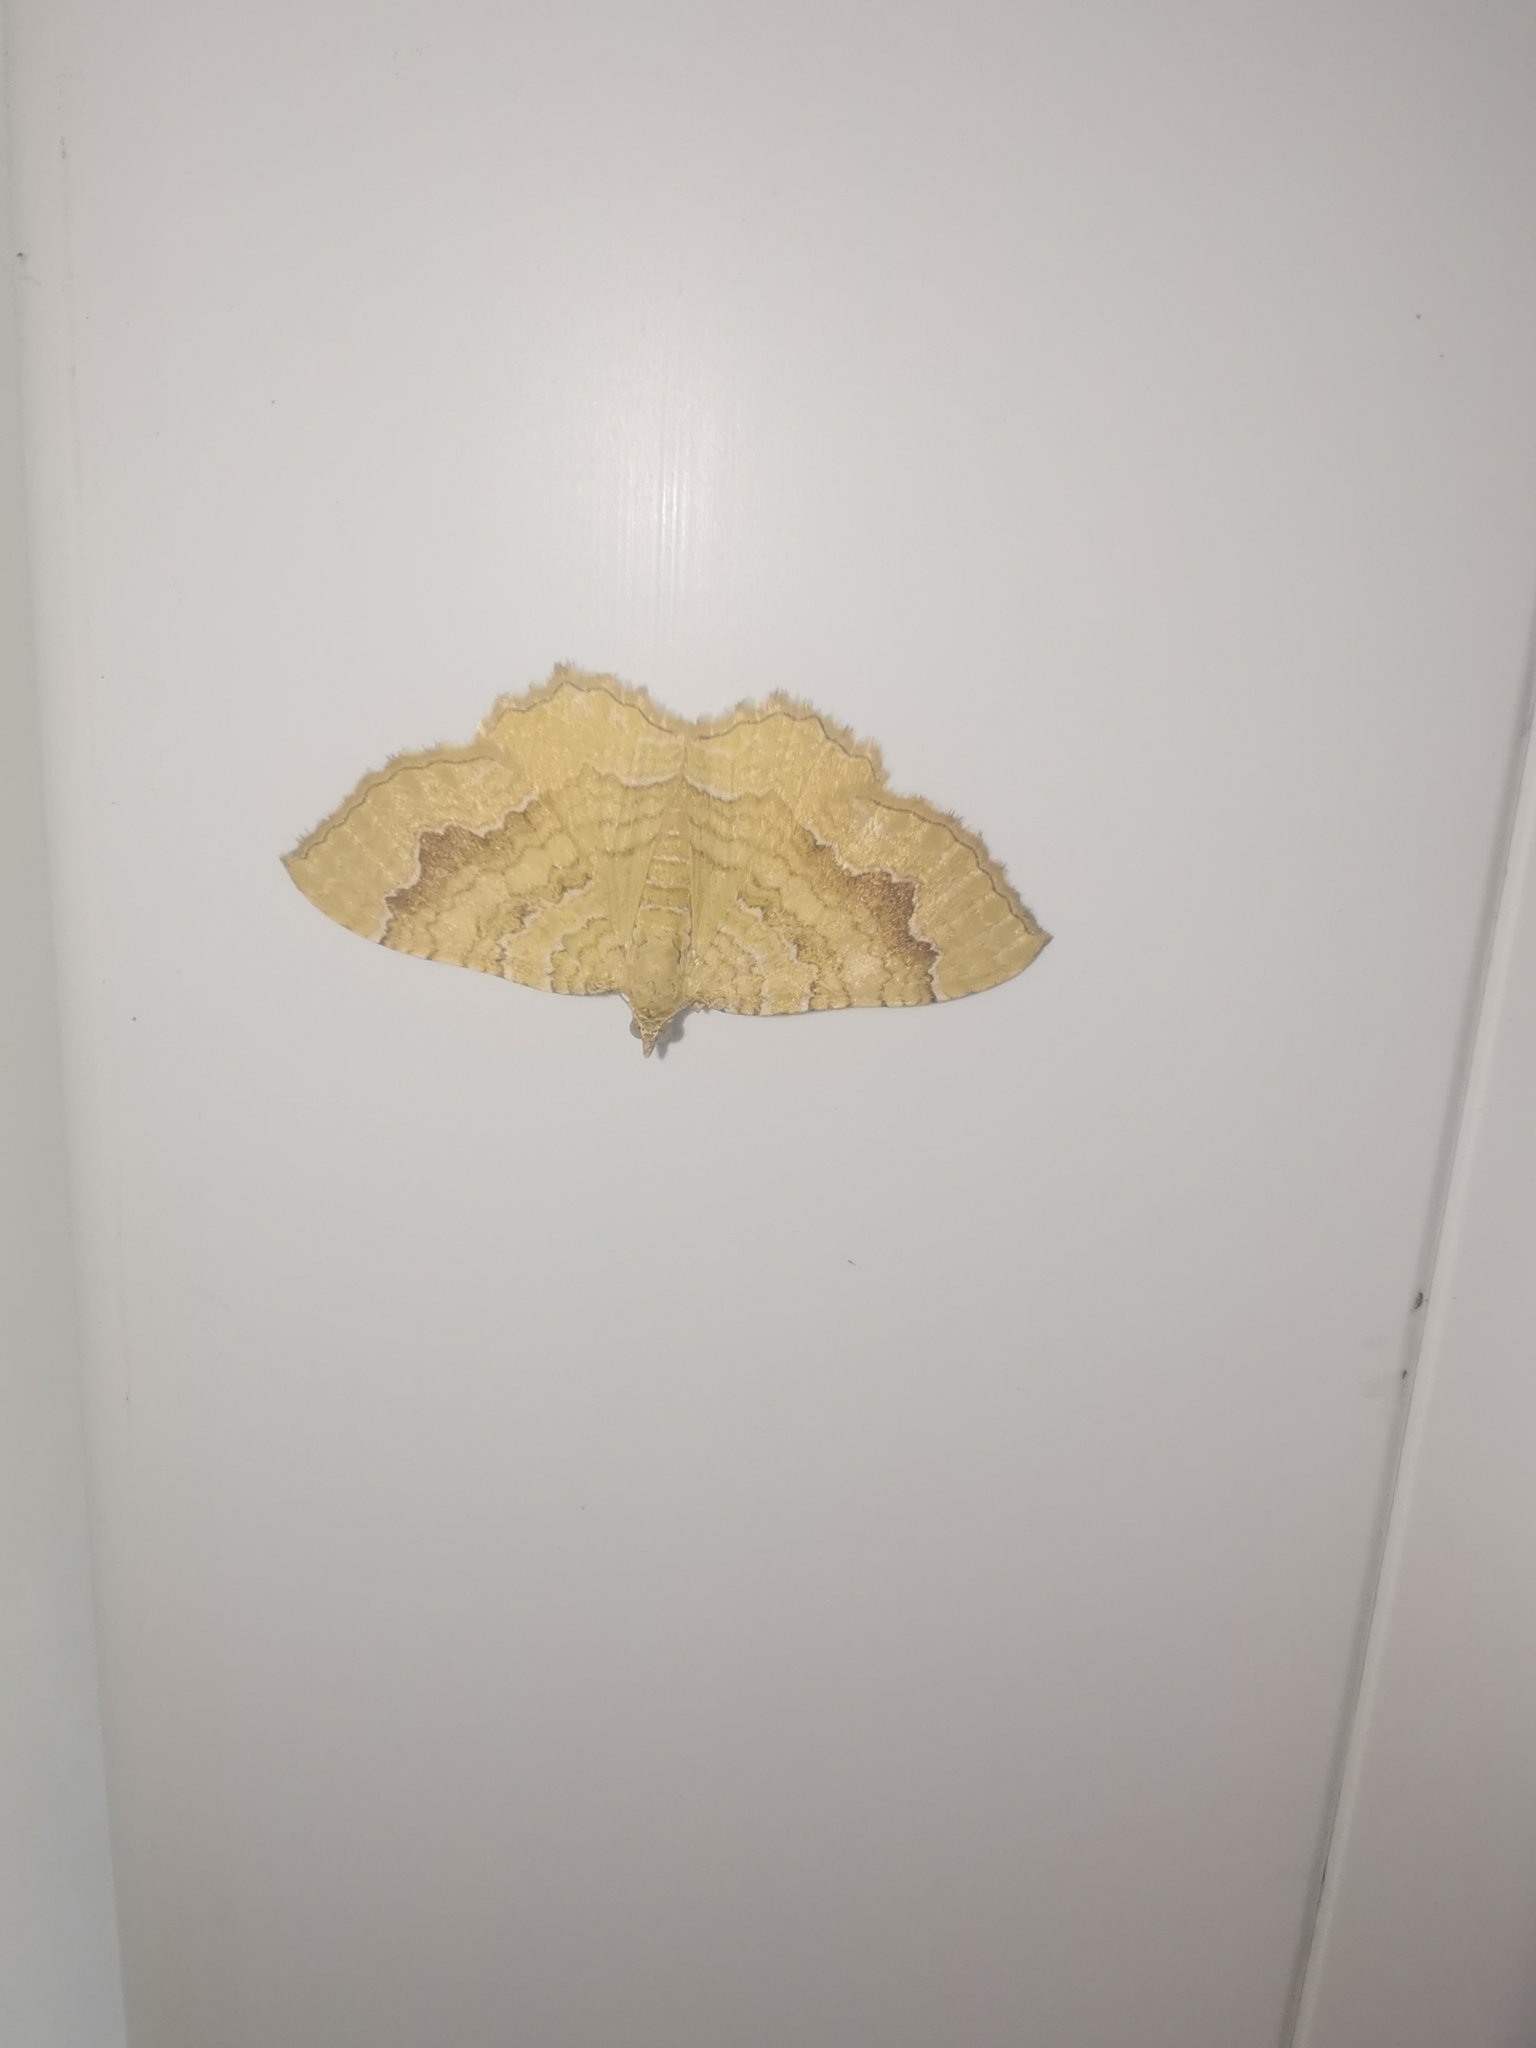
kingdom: Animalia
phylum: Arthropoda
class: Insecta
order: Lepidoptera
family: Geometridae
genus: Camptogramma
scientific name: Camptogramma bilineata
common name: Yellow shell
